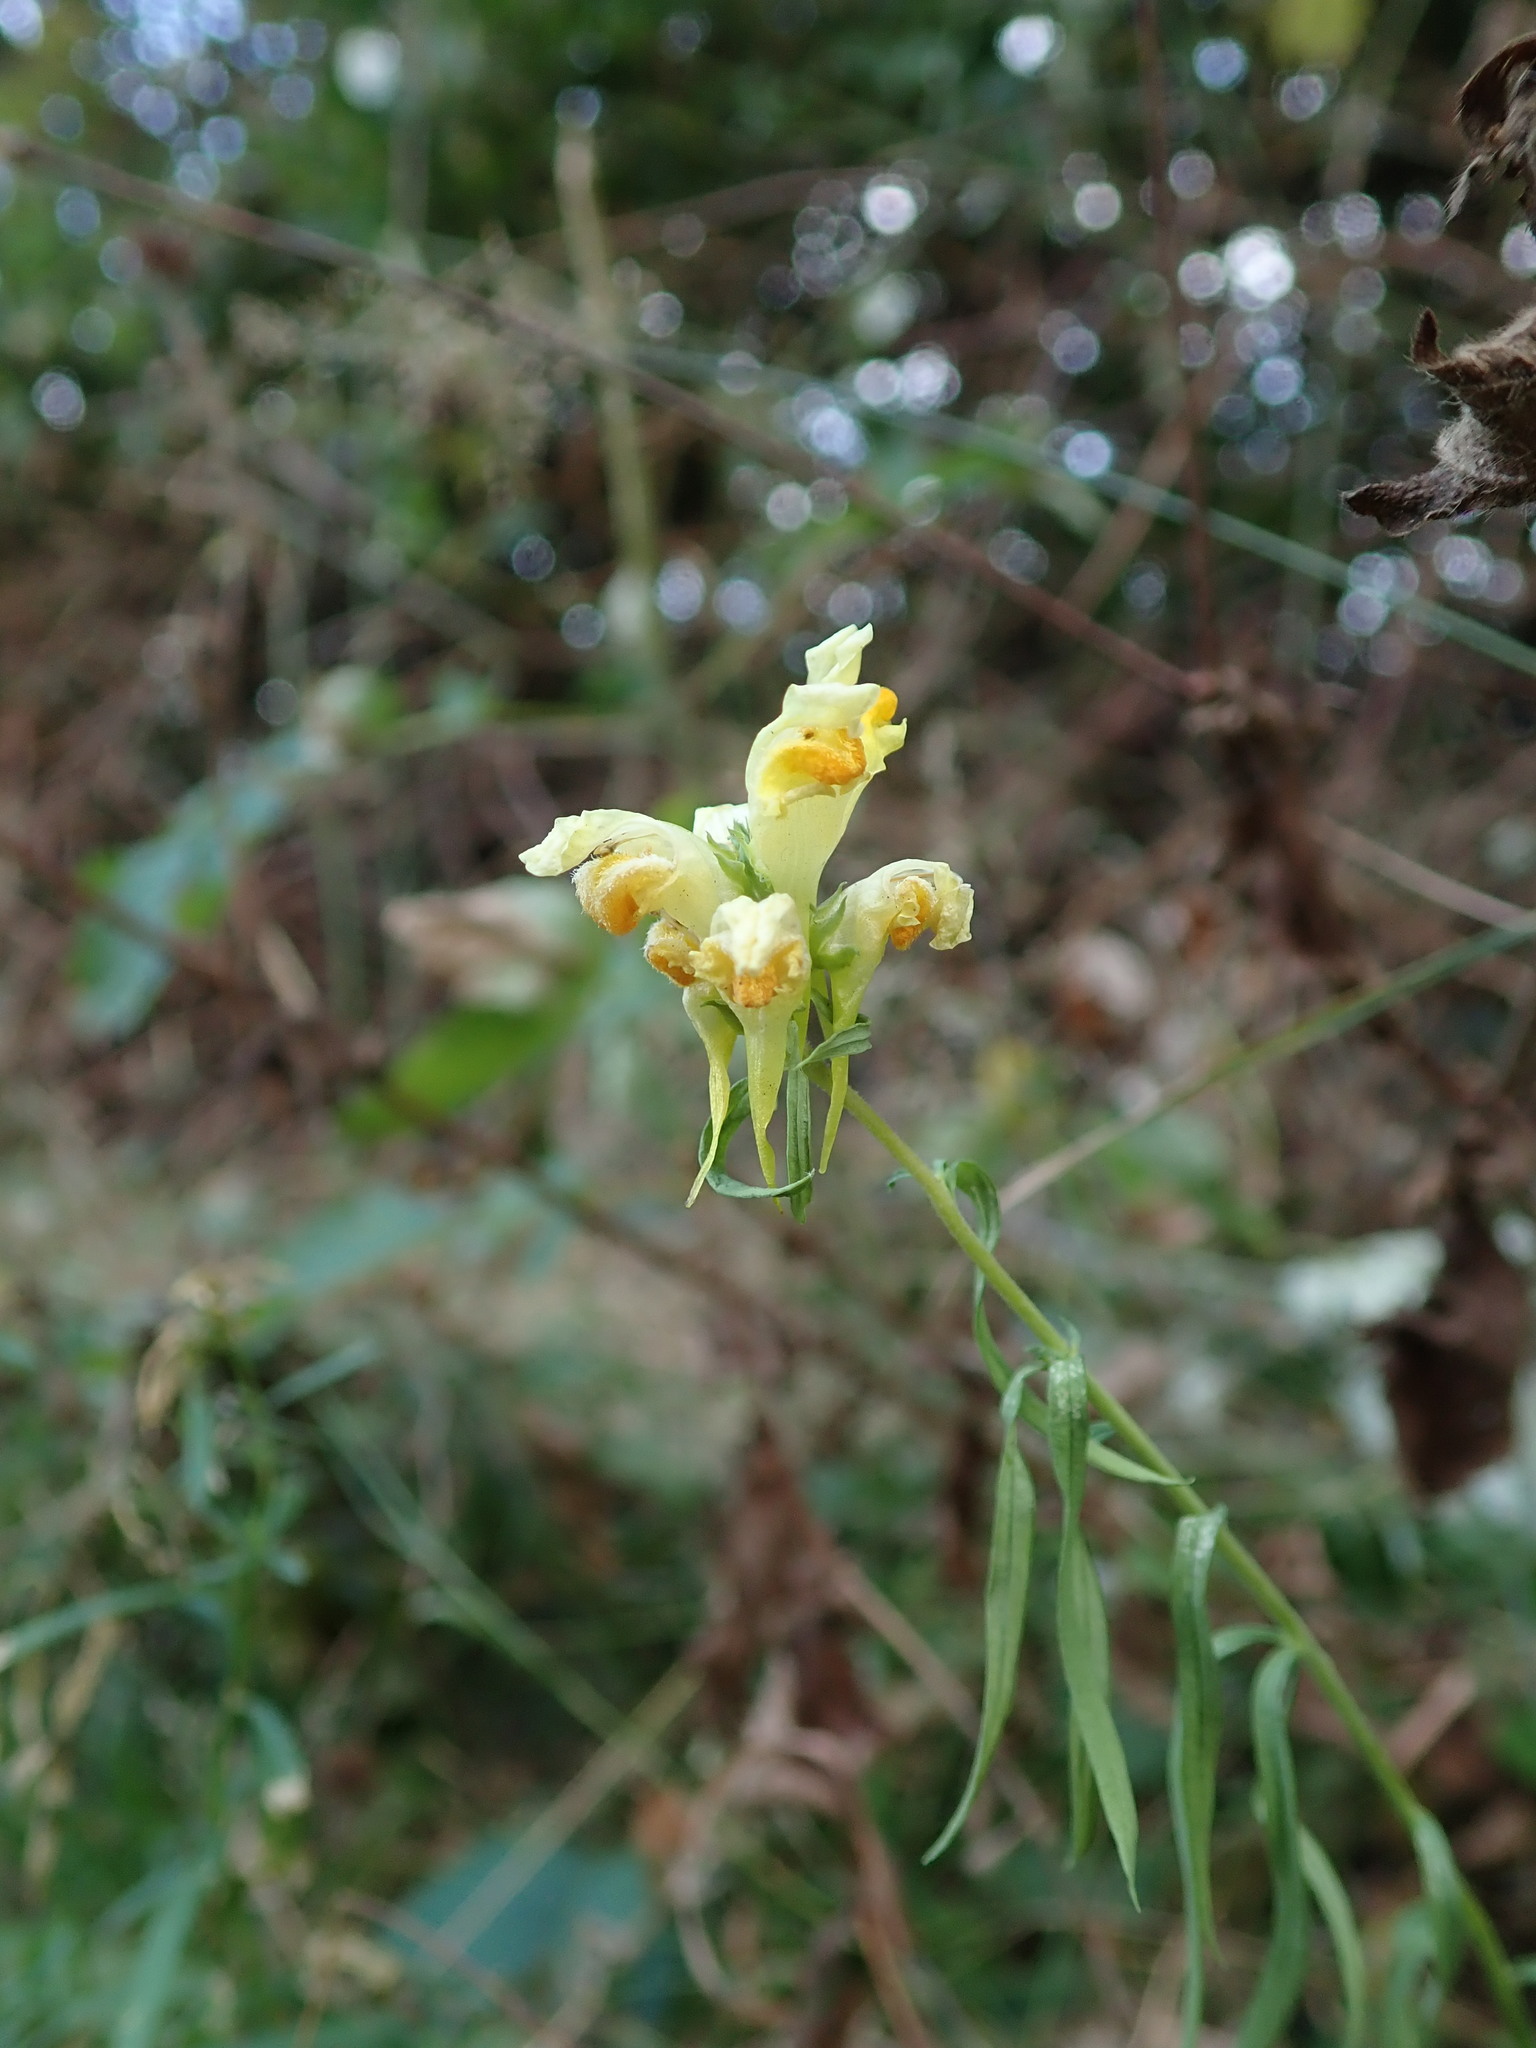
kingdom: Plantae
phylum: Tracheophyta
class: Magnoliopsida
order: Lamiales
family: Plantaginaceae
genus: Linaria
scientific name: Linaria vulgaris
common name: Butter and eggs
